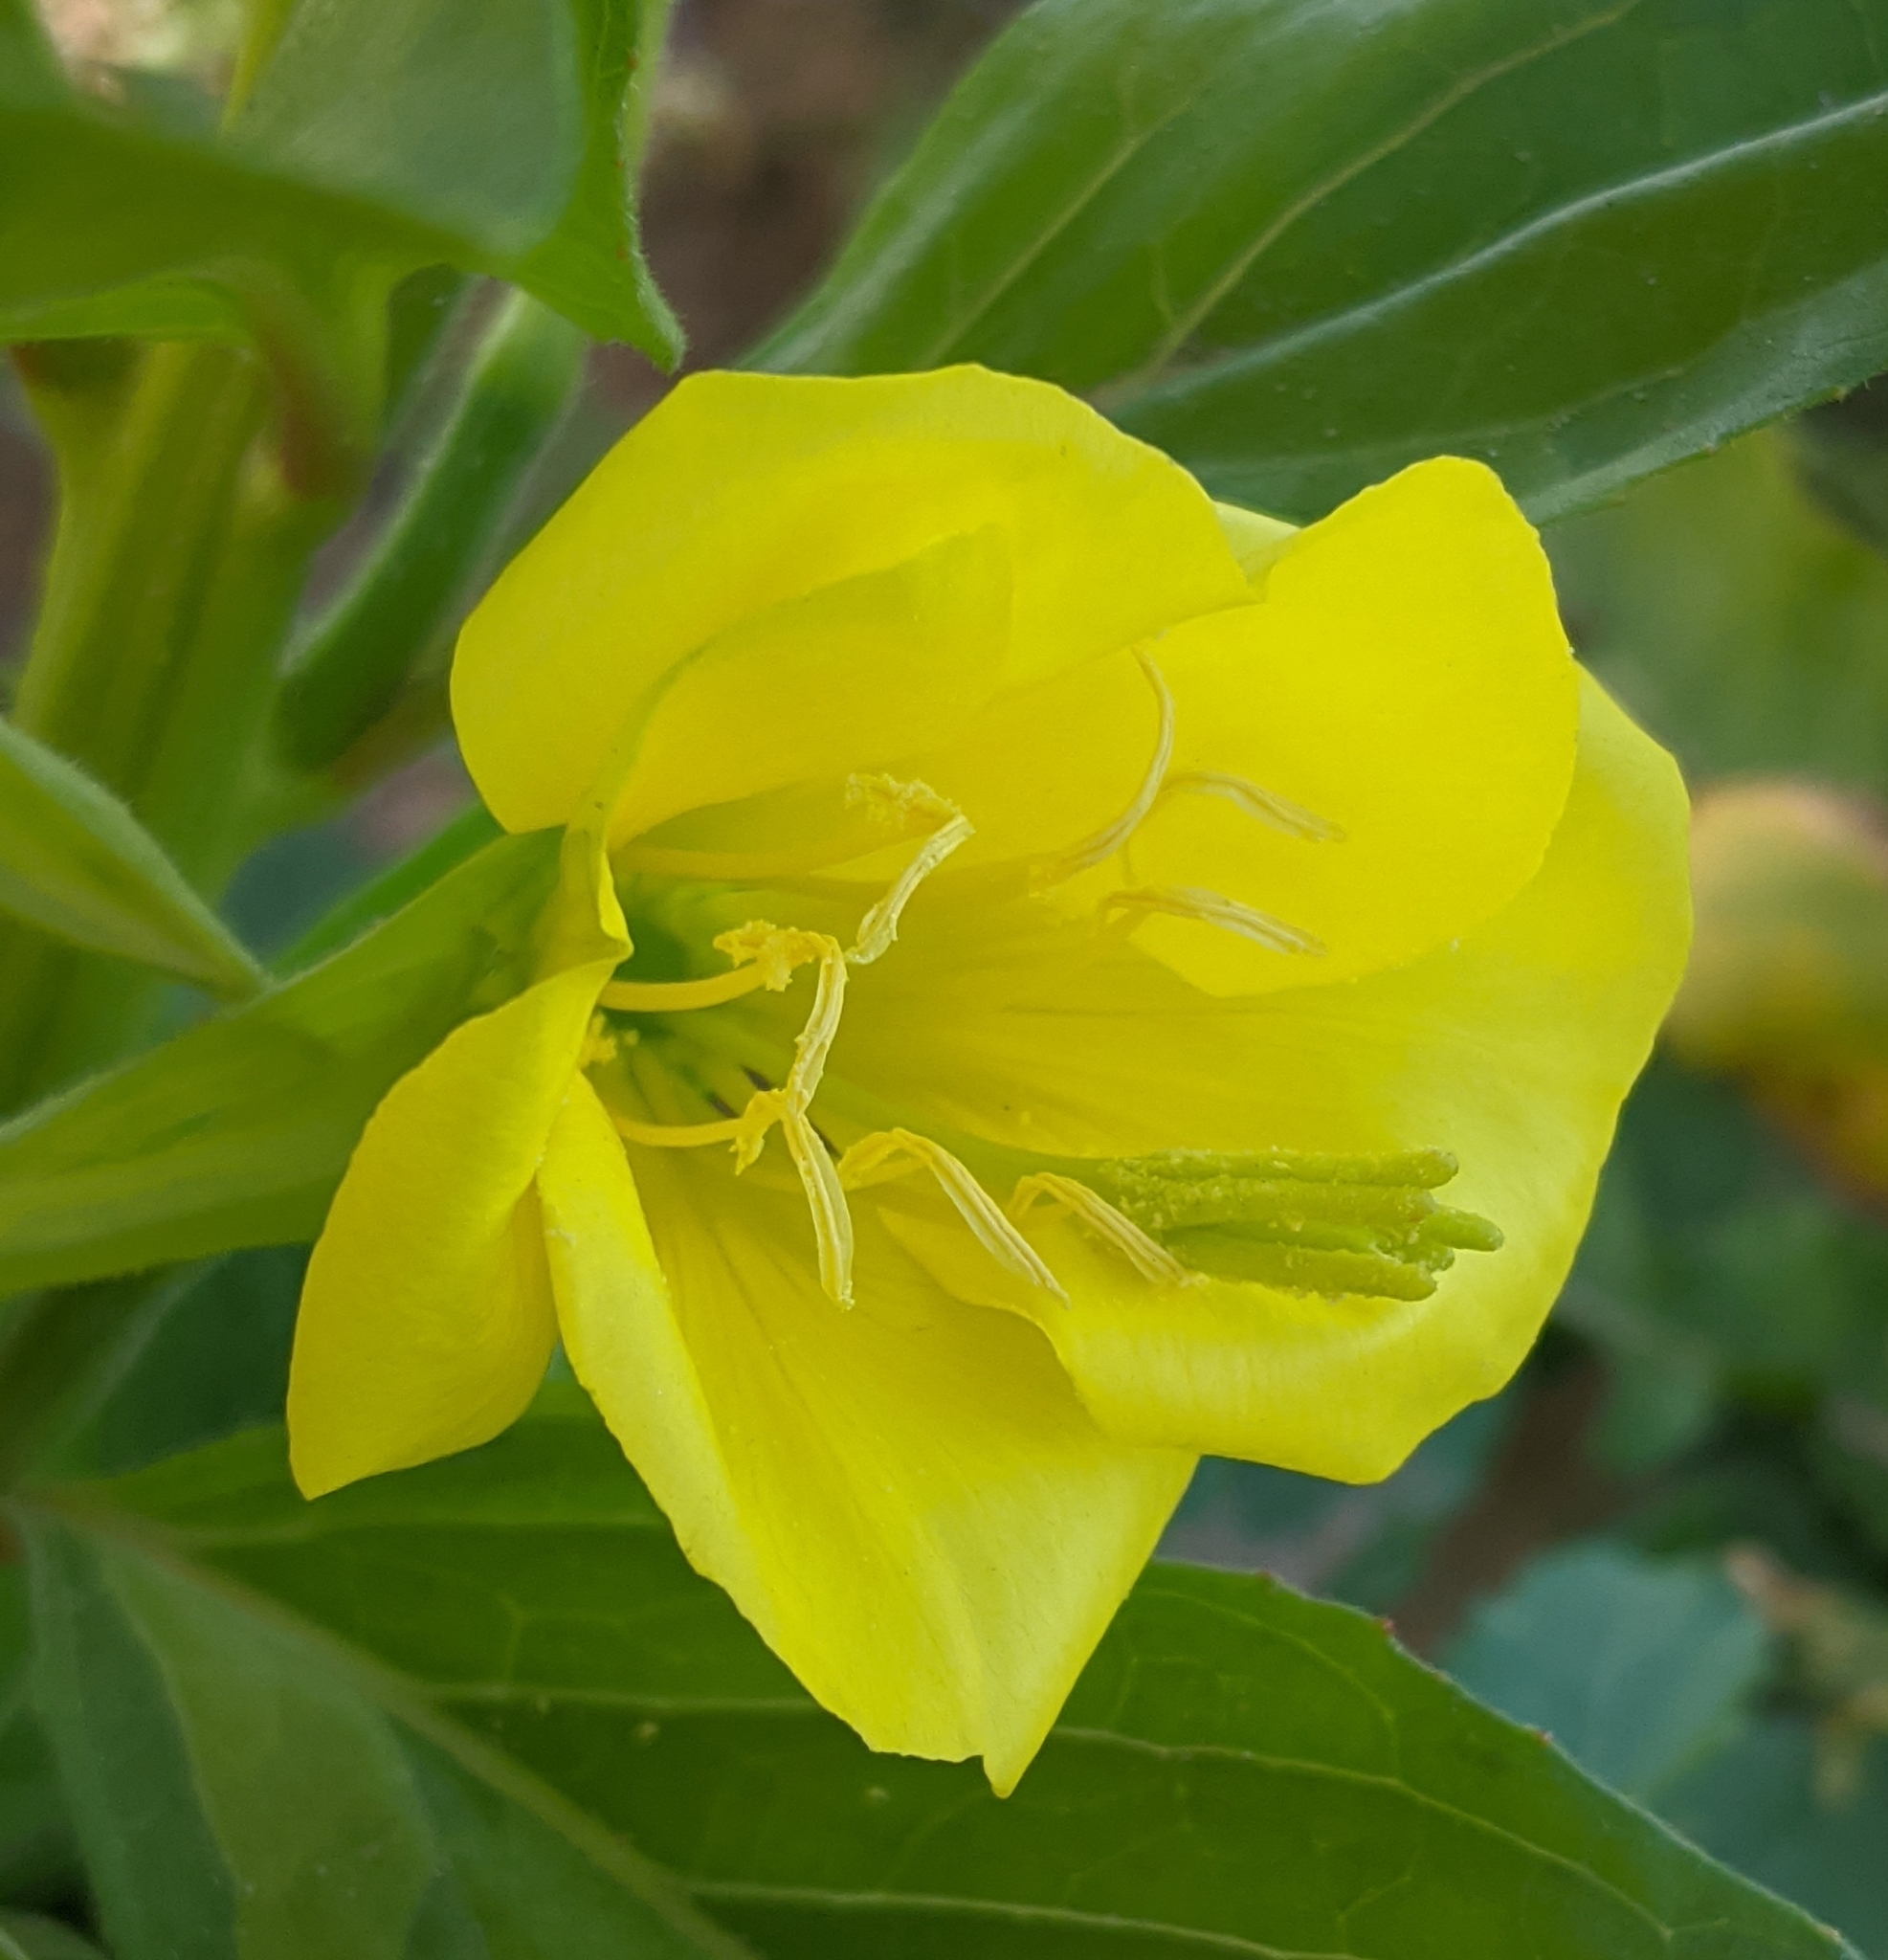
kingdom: Plantae
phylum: Tracheophyta
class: Magnoliopsida
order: Myrtales
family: Onagraceae
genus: Oenothera
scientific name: Oenothera biennis
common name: Common evening-primrose
